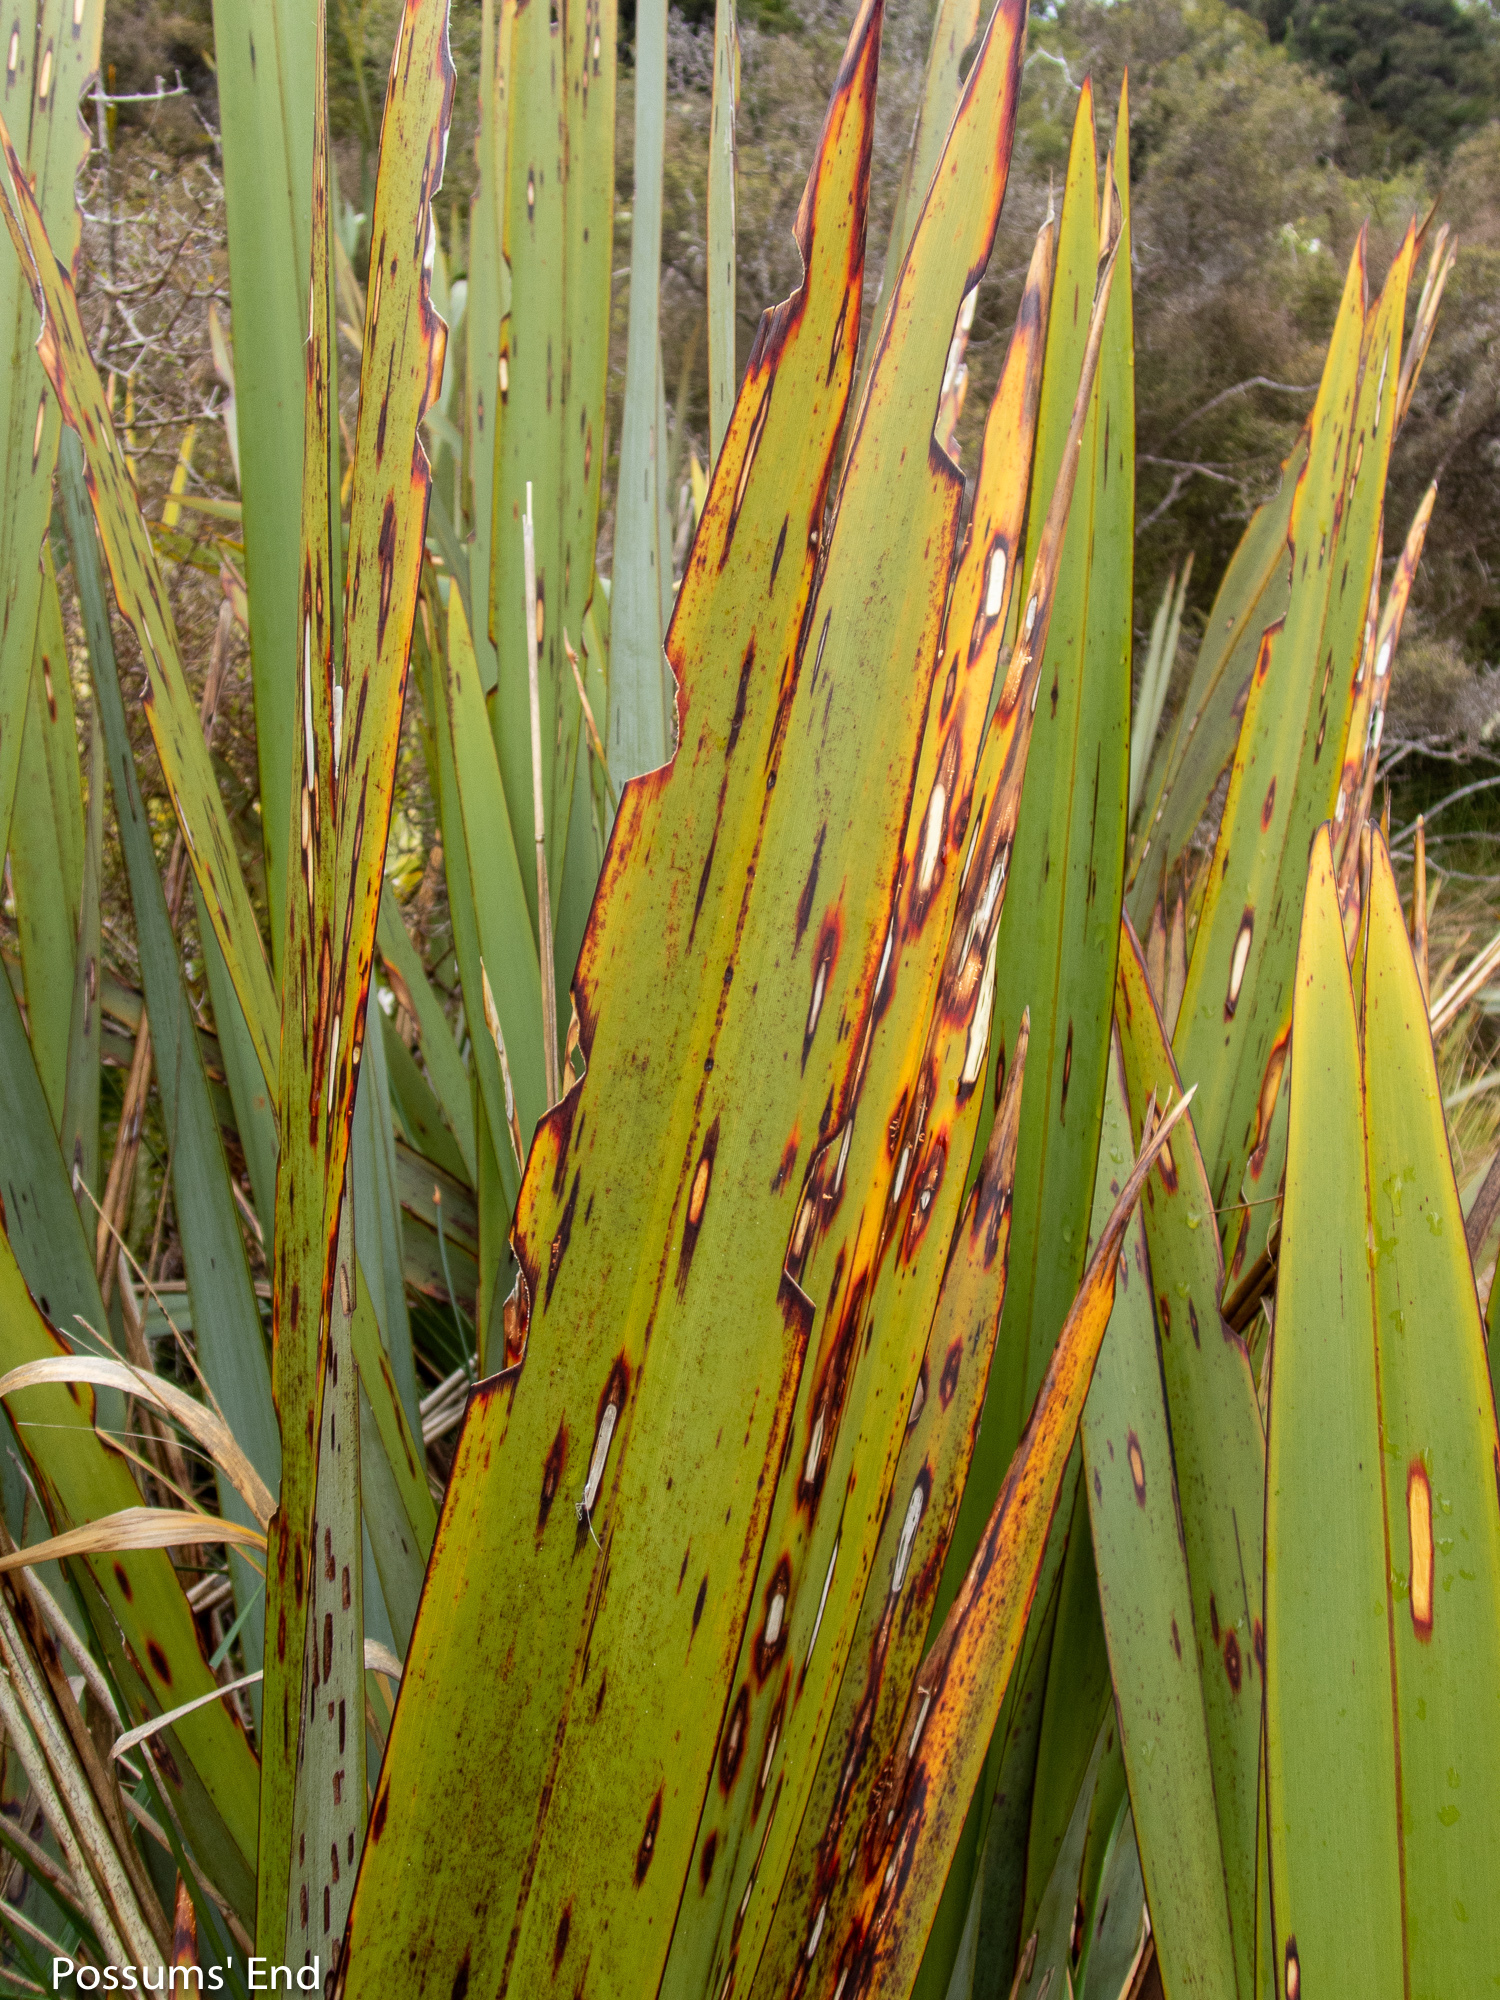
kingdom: Animalia
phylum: Arthropoda
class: Insecta
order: Lepidoptera
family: Geometridae
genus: Orthoclydon
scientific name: Orthoclydon praefectata
